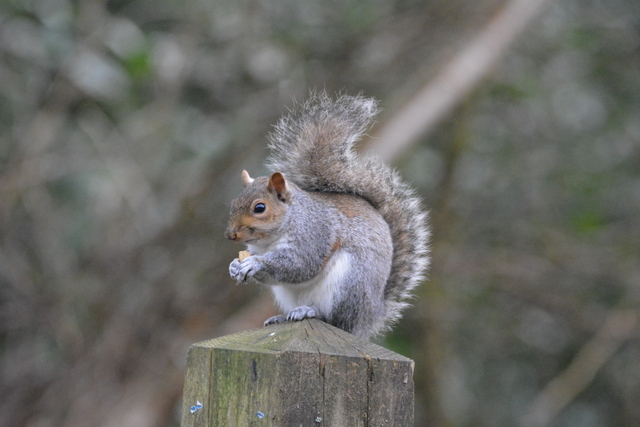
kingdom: Animalia
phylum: Chordata
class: Mammalia
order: Rodentia
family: Sciuridae
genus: Sciurus
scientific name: Sciurus carolinensis
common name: Eastern gray squirrel
